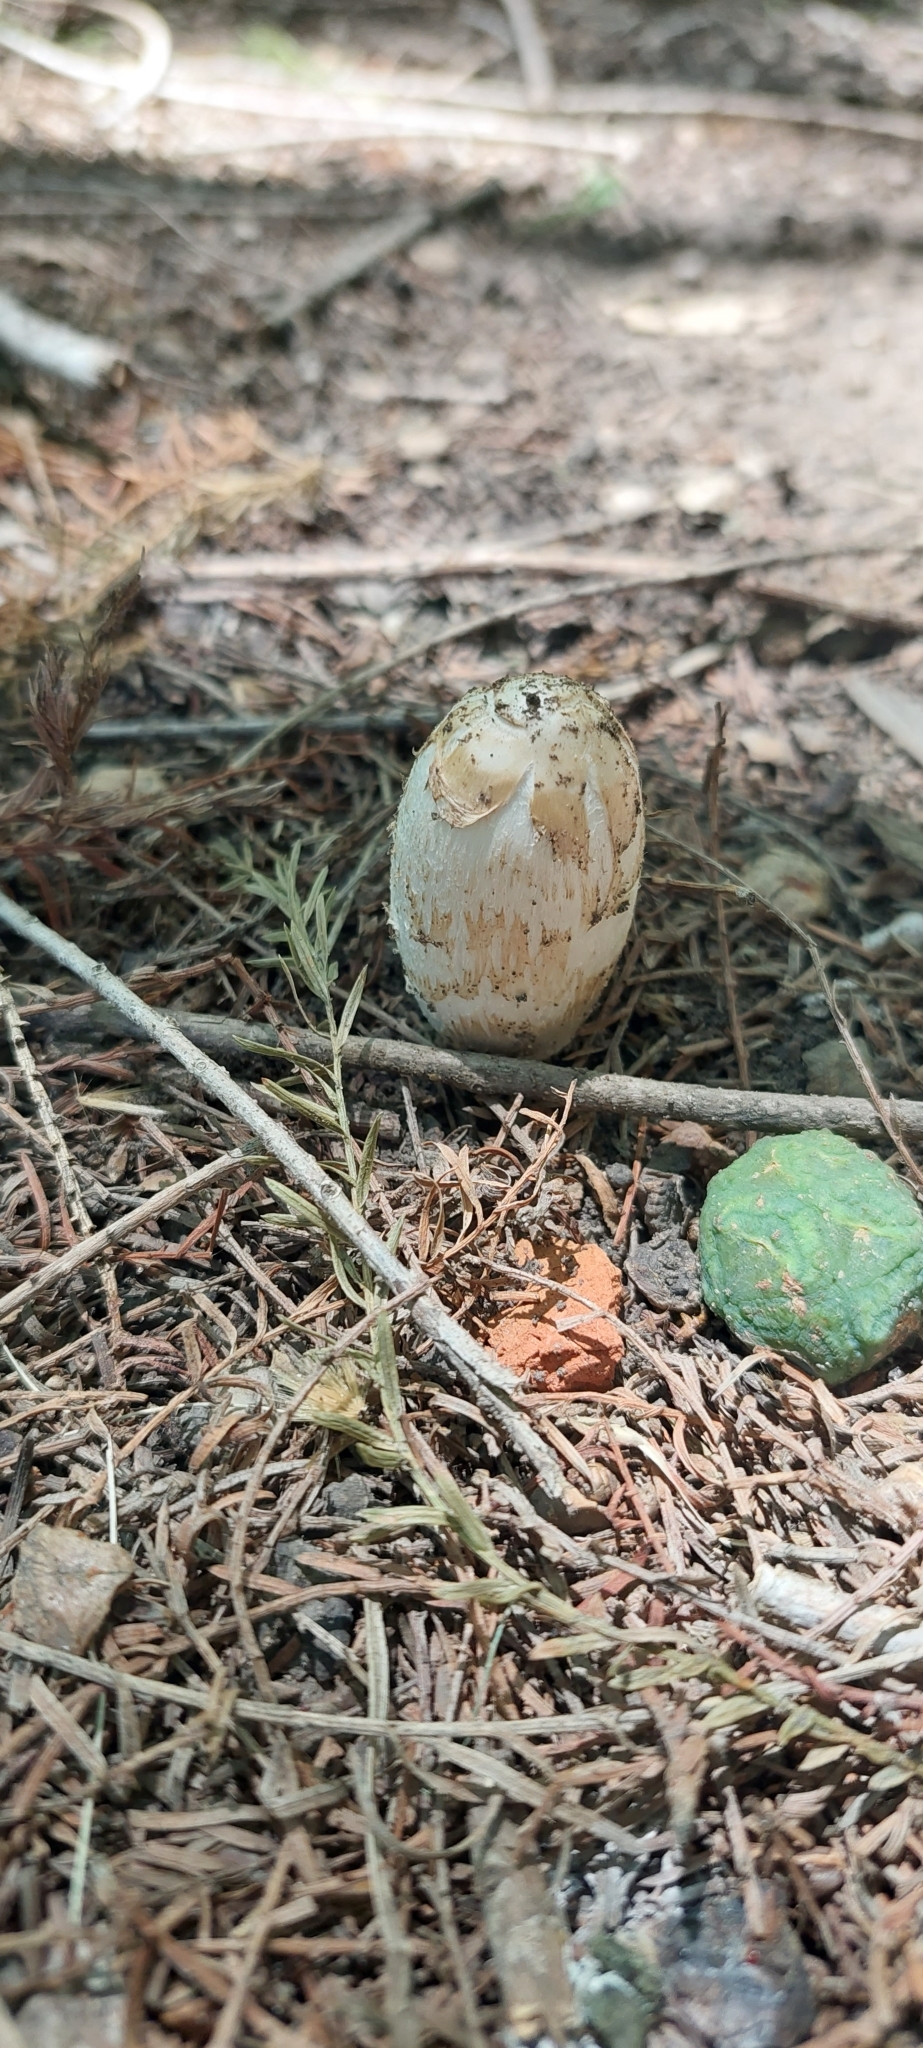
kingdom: Fungi
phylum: Basidiomycota
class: Agaricomycetes
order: Agaricales
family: Agaricaceae
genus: Coprinus
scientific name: Coprinus comatus
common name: Lawyer's wig
